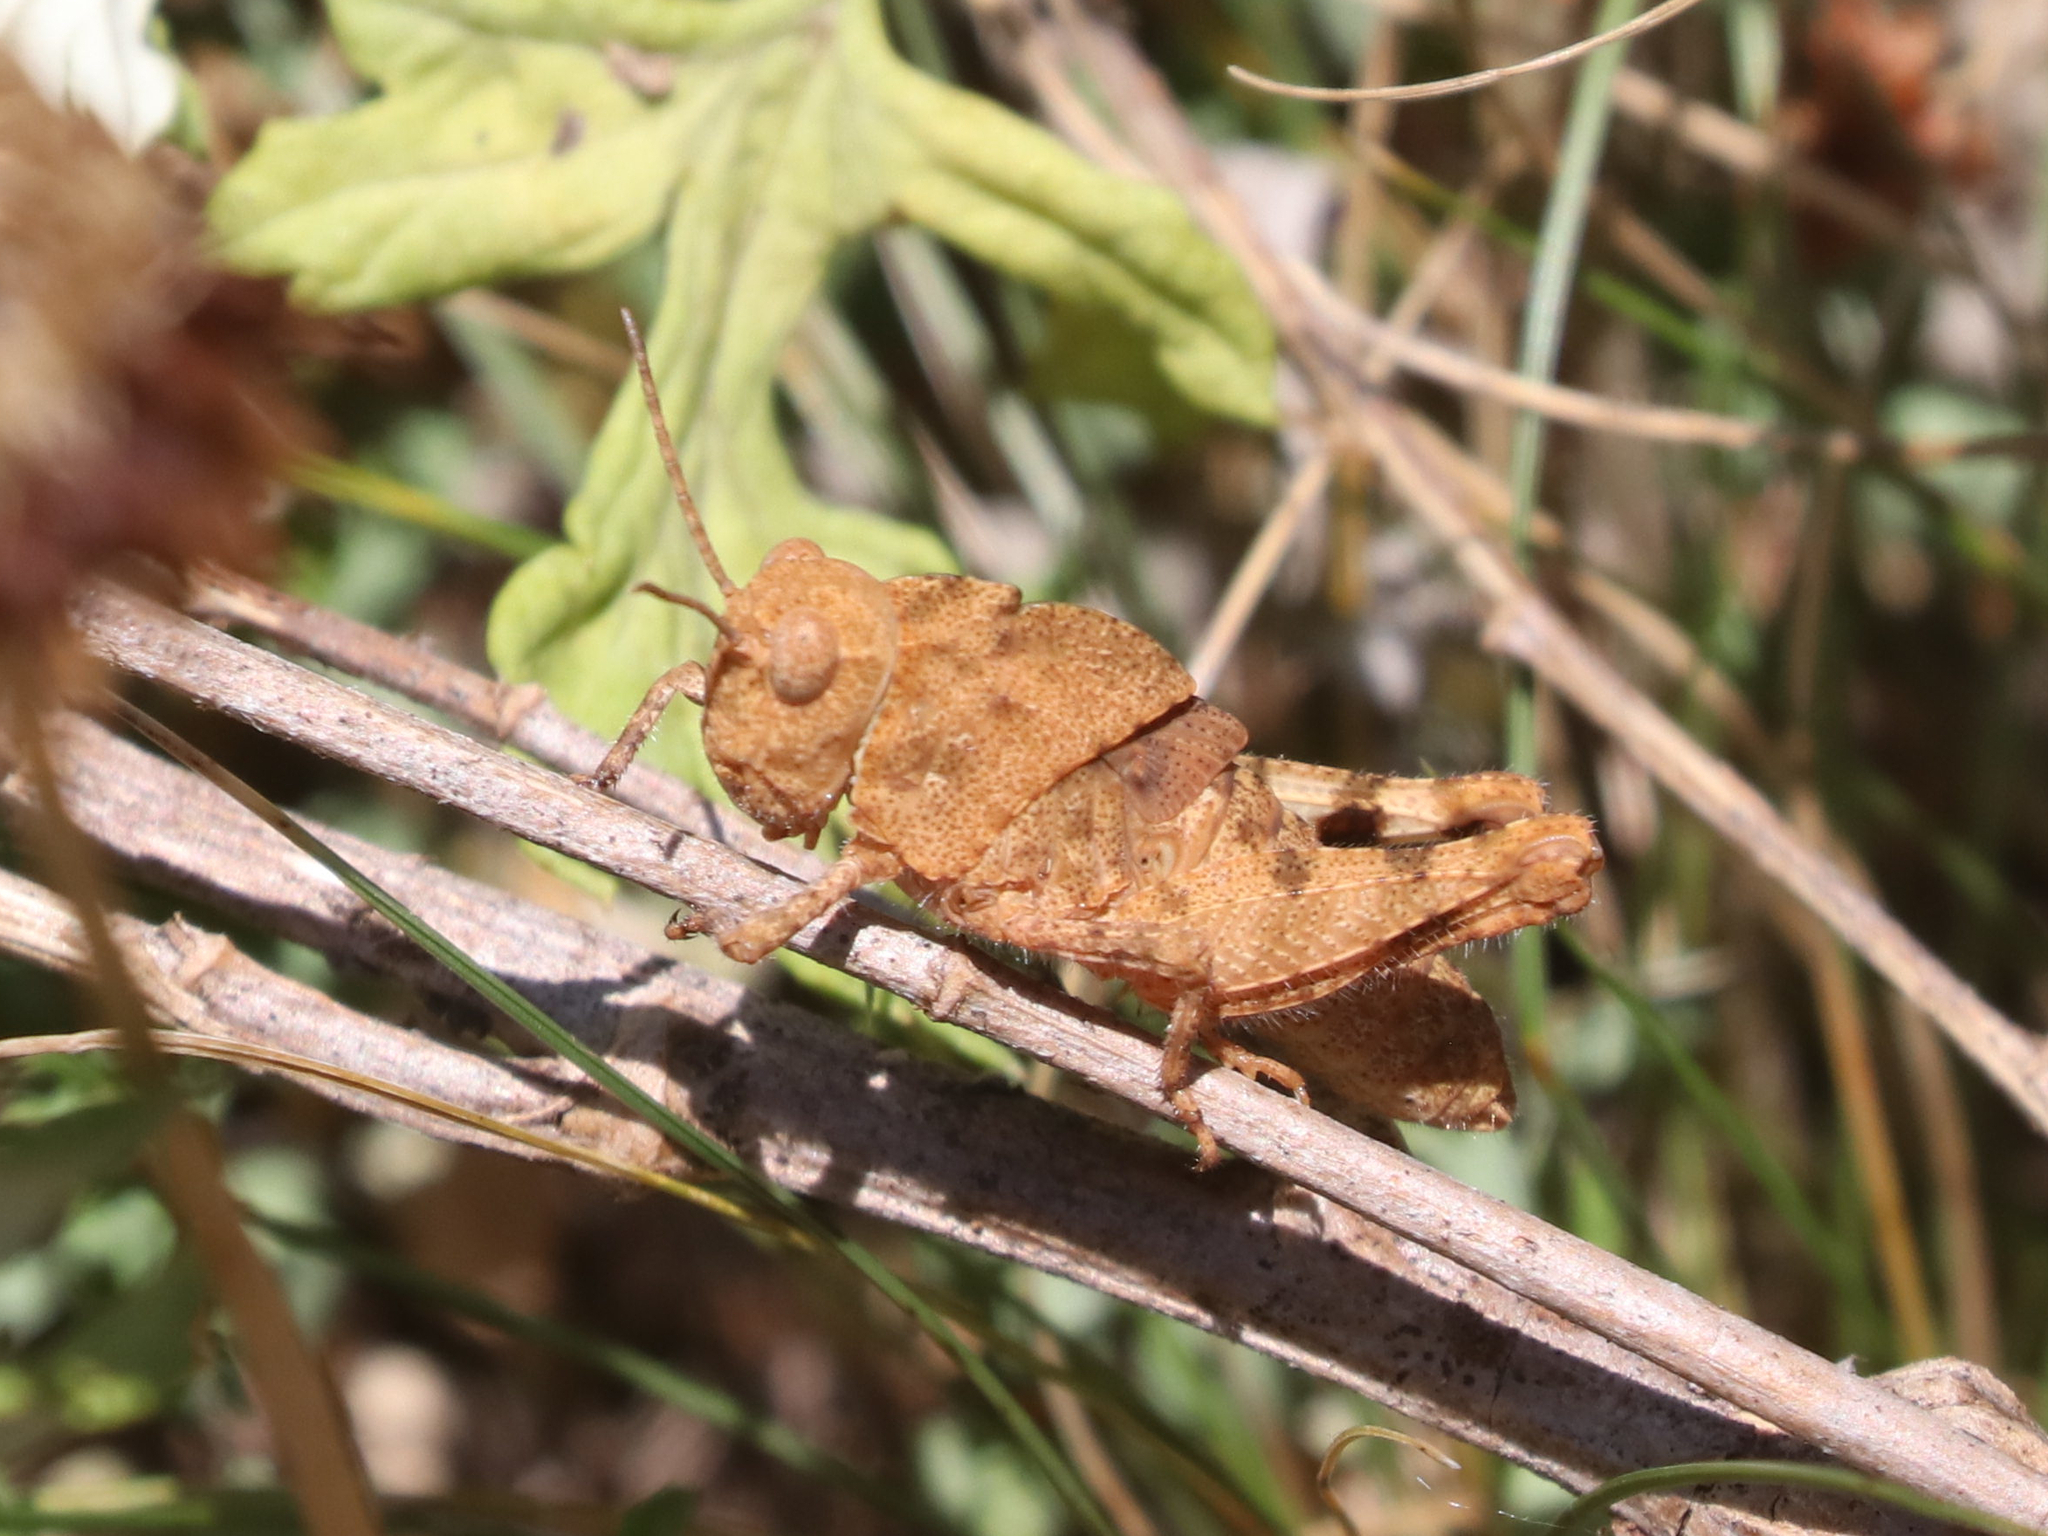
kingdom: Animalia
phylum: Arthropoda
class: Insecta
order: Orthoptera
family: Acrididae
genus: Dissosteira
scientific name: Dissosteira carolina
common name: Carolina grasshopper
